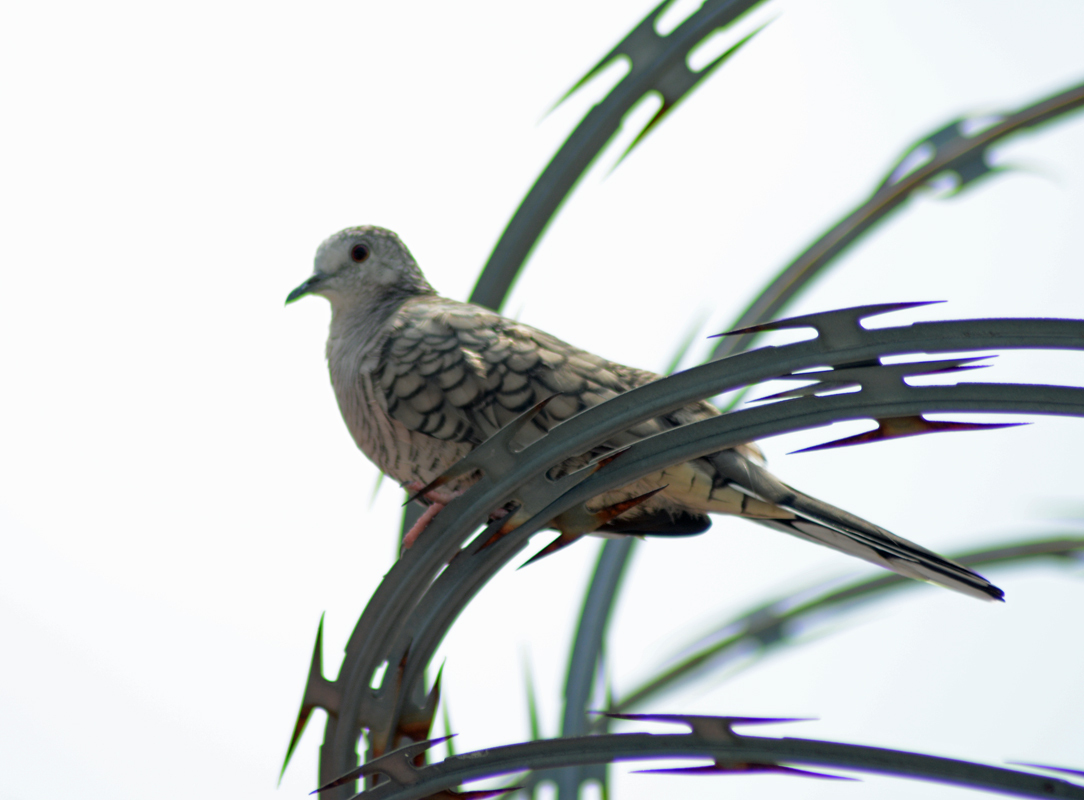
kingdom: Animalia
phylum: Chordata
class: Aves
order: Columbiformes
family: Columbidae
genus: Columbina
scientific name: Columbina inca
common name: Inca dove
